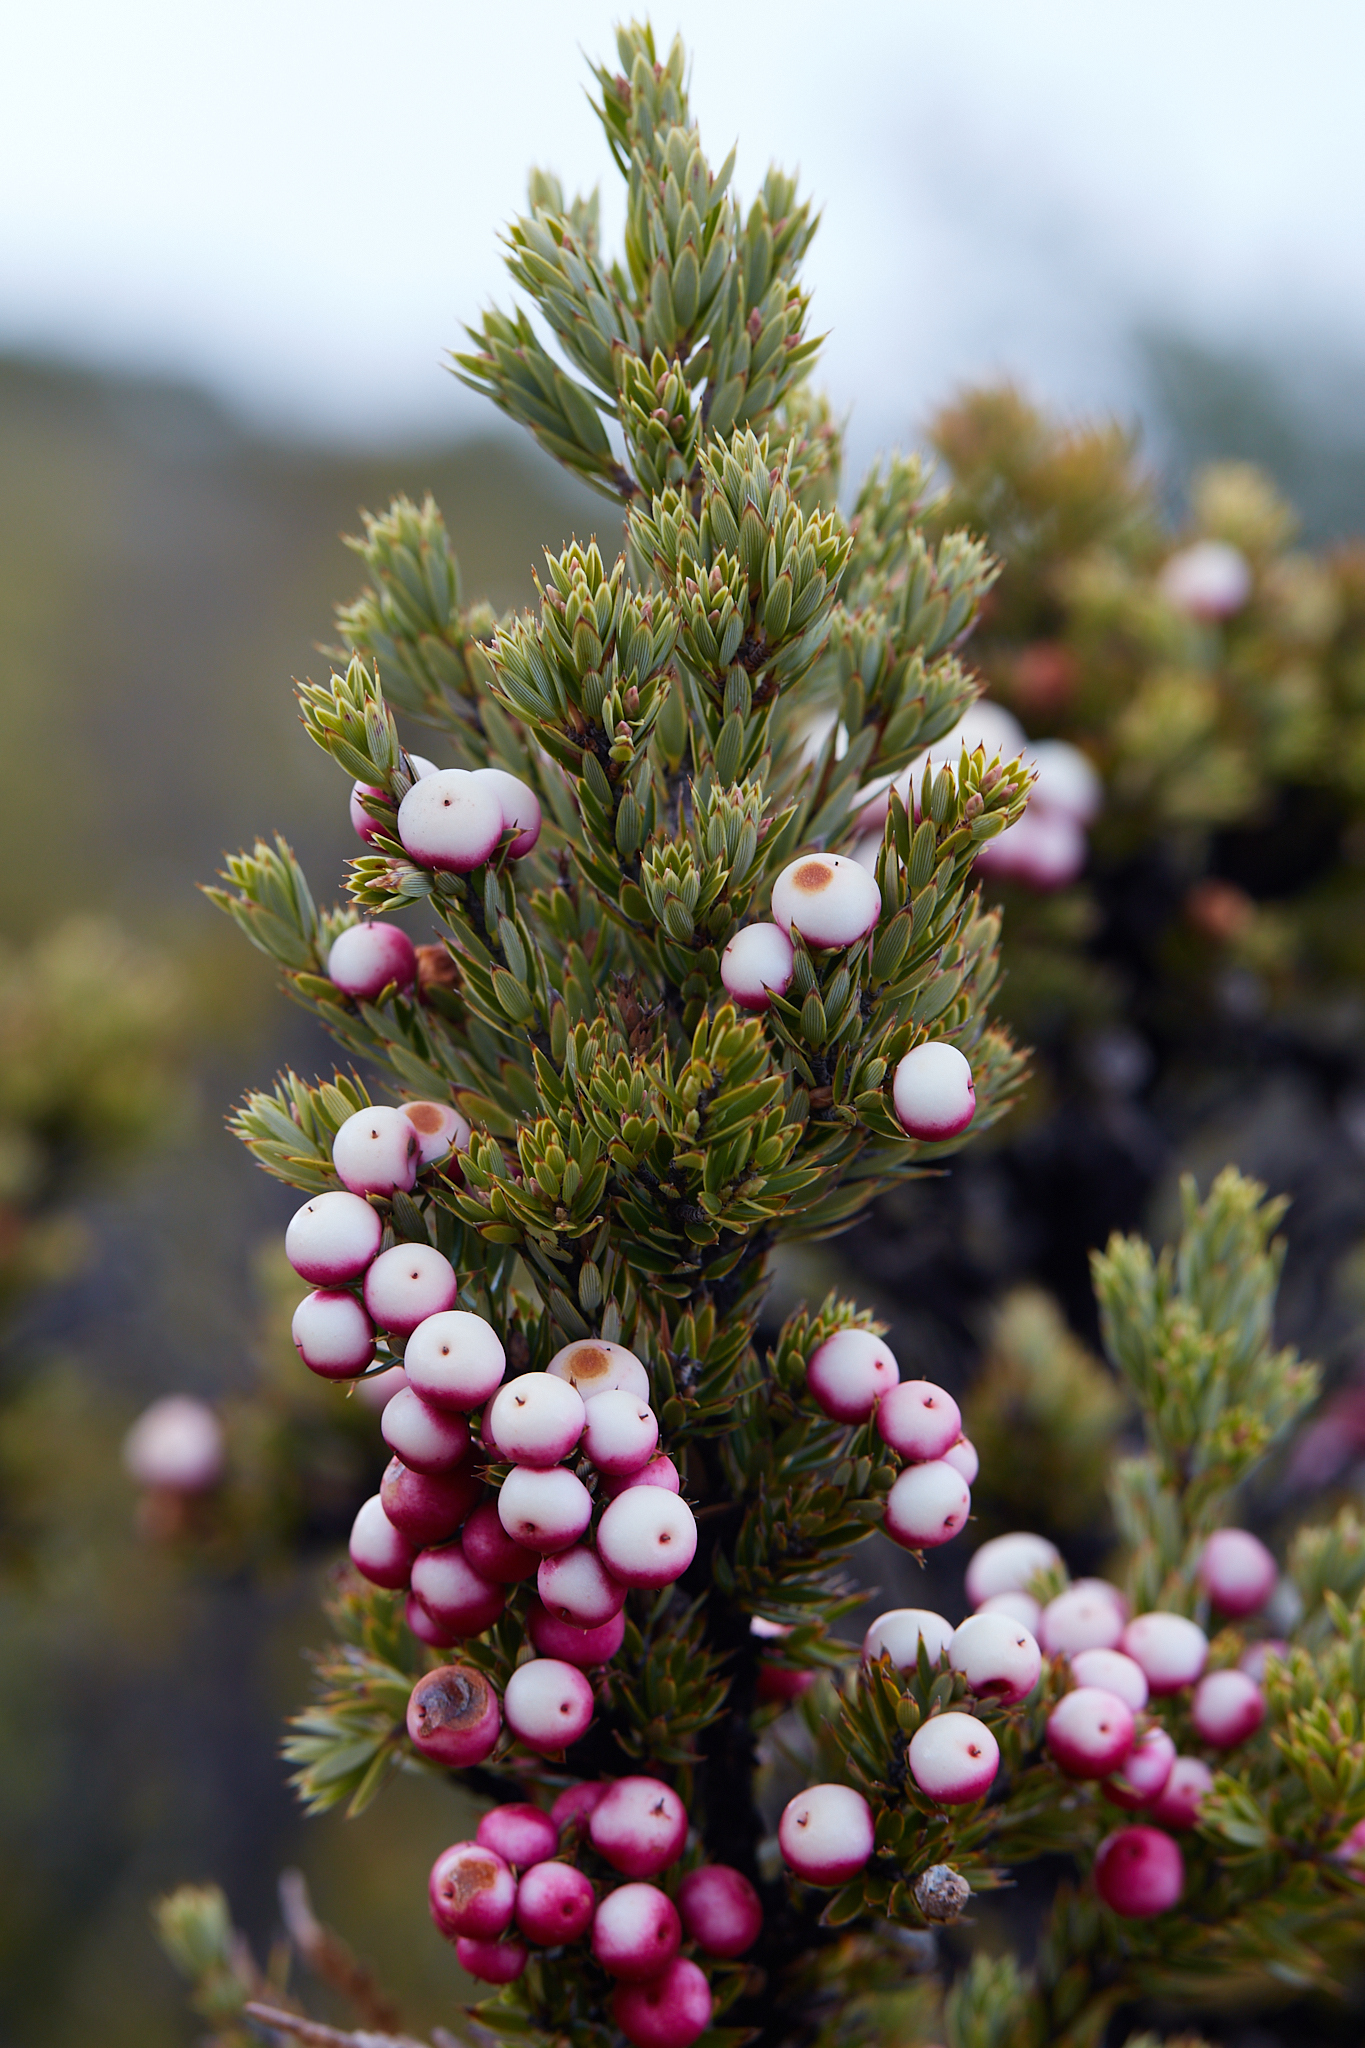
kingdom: Plantae
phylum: Tracheophyta
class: Magnoliopsida
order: Ericales
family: Ericaceae
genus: Leptecophylla
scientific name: Leptecophylla tameiameiae
